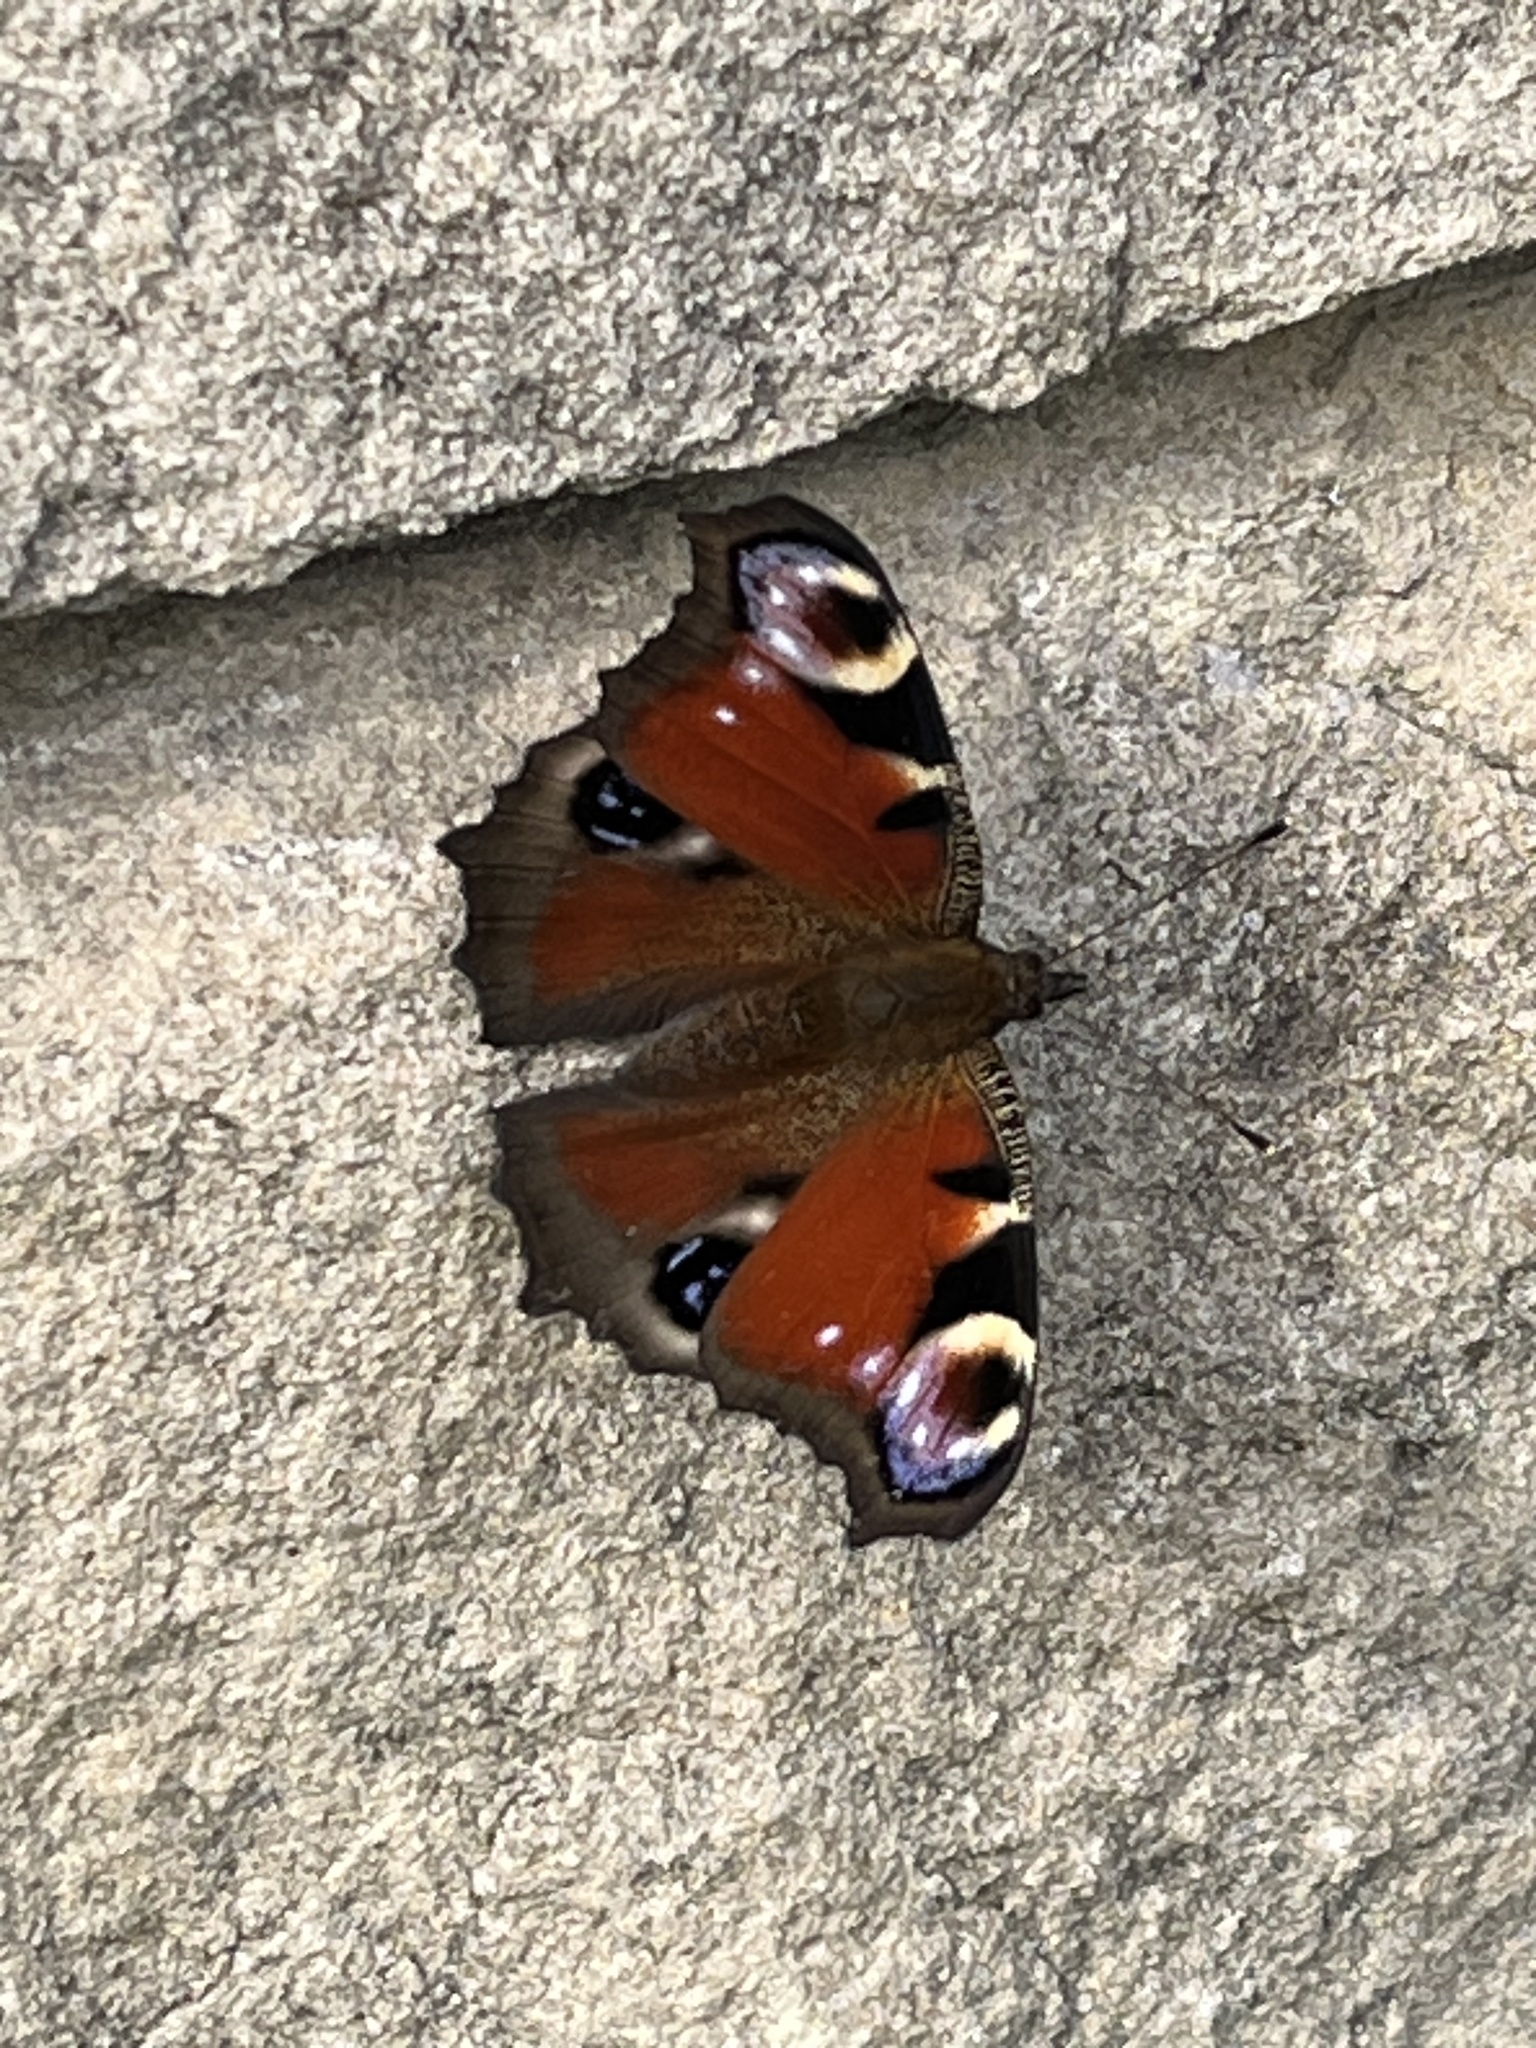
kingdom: Animalia
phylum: Arthropoda
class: Insecta
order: Lepidoptera
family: Nymphalidae
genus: Aglais
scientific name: Aglais io
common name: Peacock
